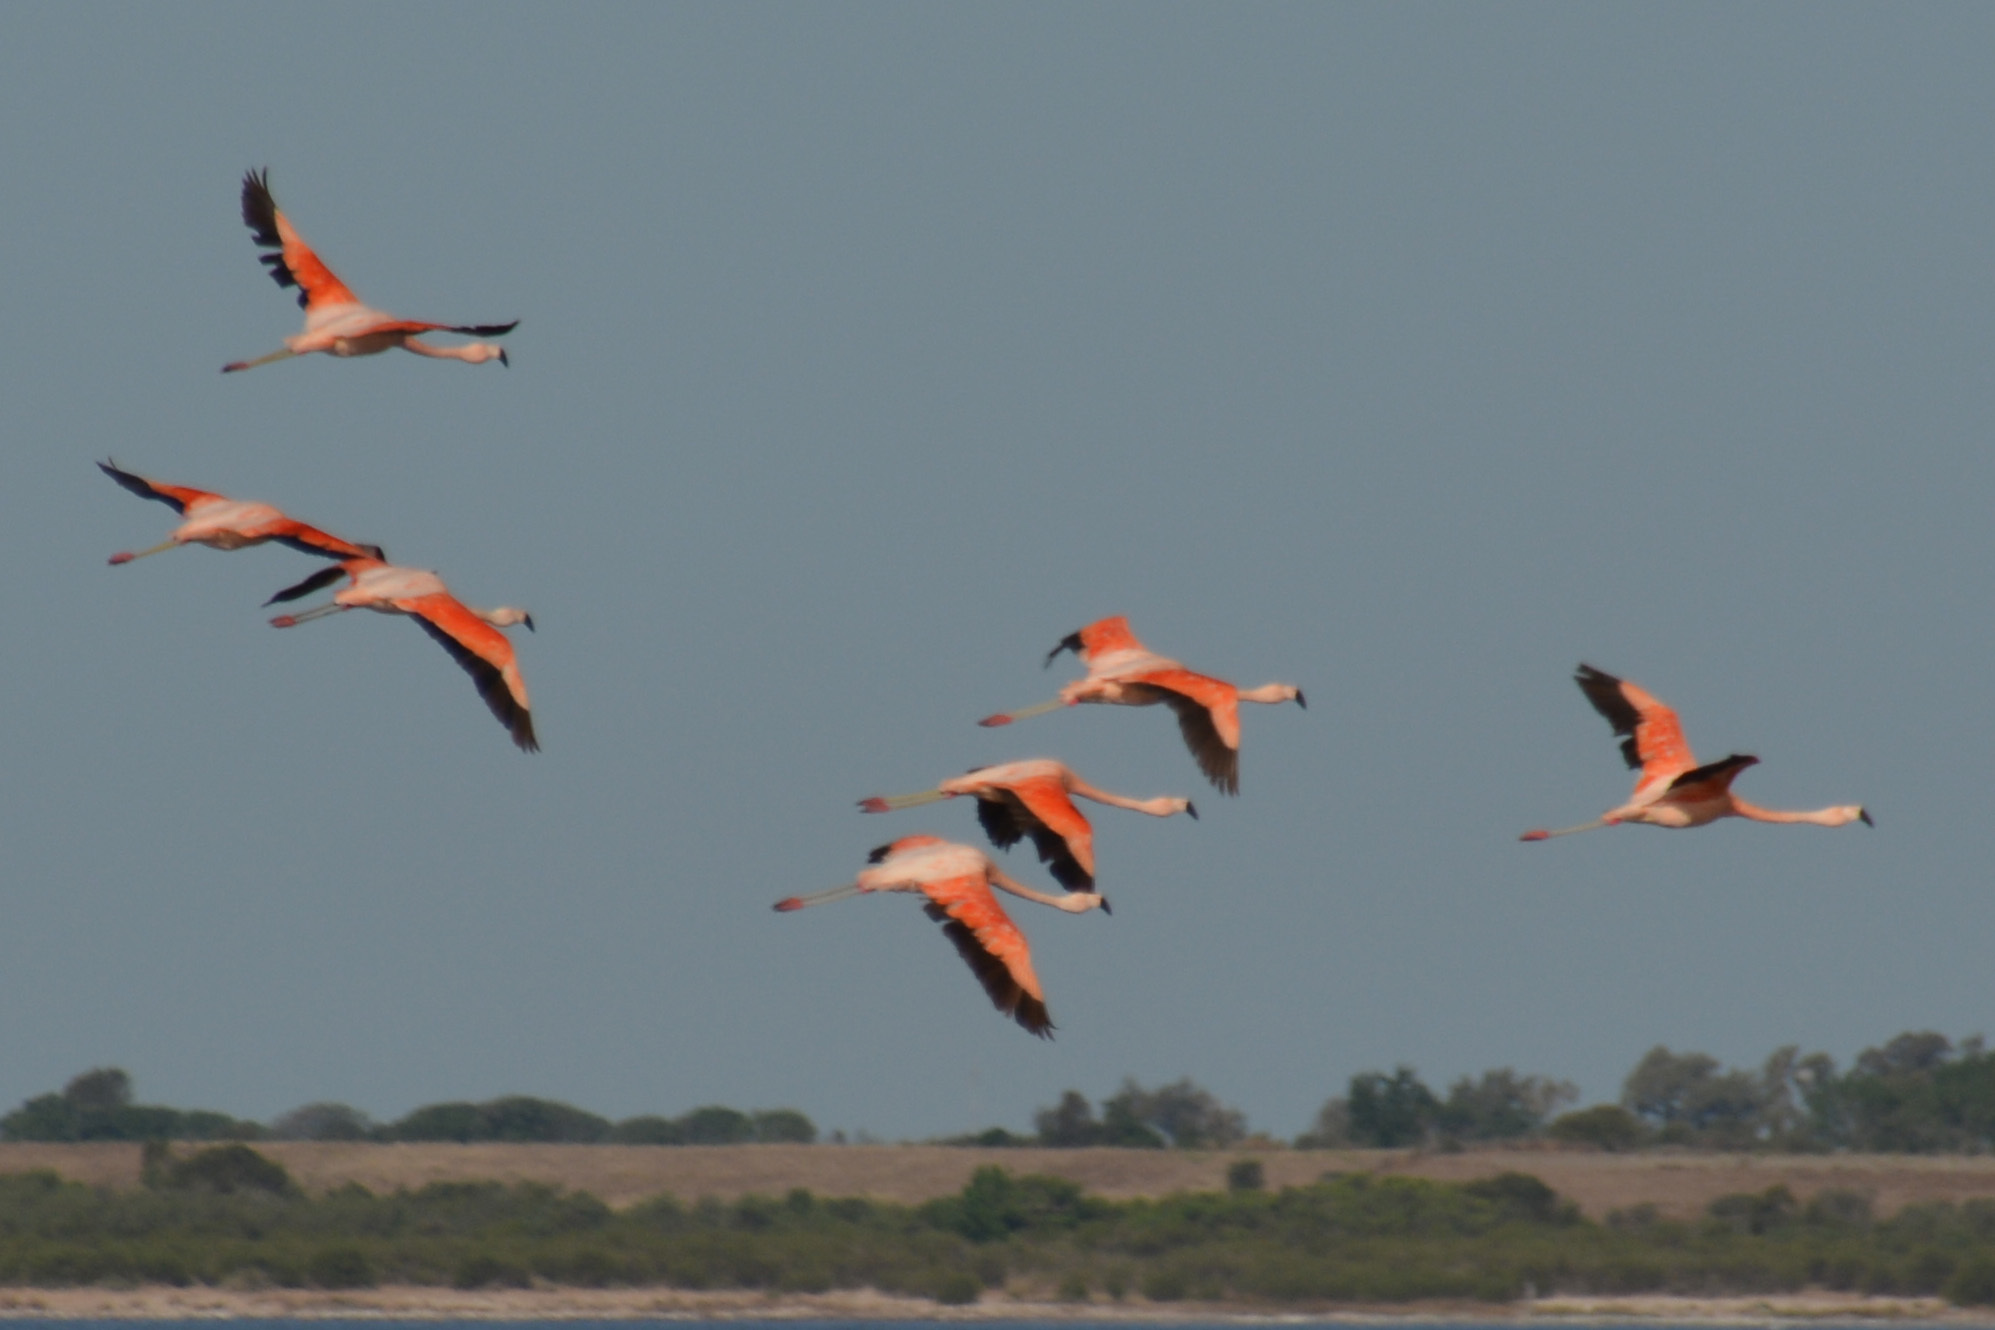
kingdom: Animalia
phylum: Chordata
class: Aves
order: Phoenicopteriformes
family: Phoenicopteridae
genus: Phoenicopterus
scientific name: Phoenicopterus chilensis
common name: Chilean flamingo
